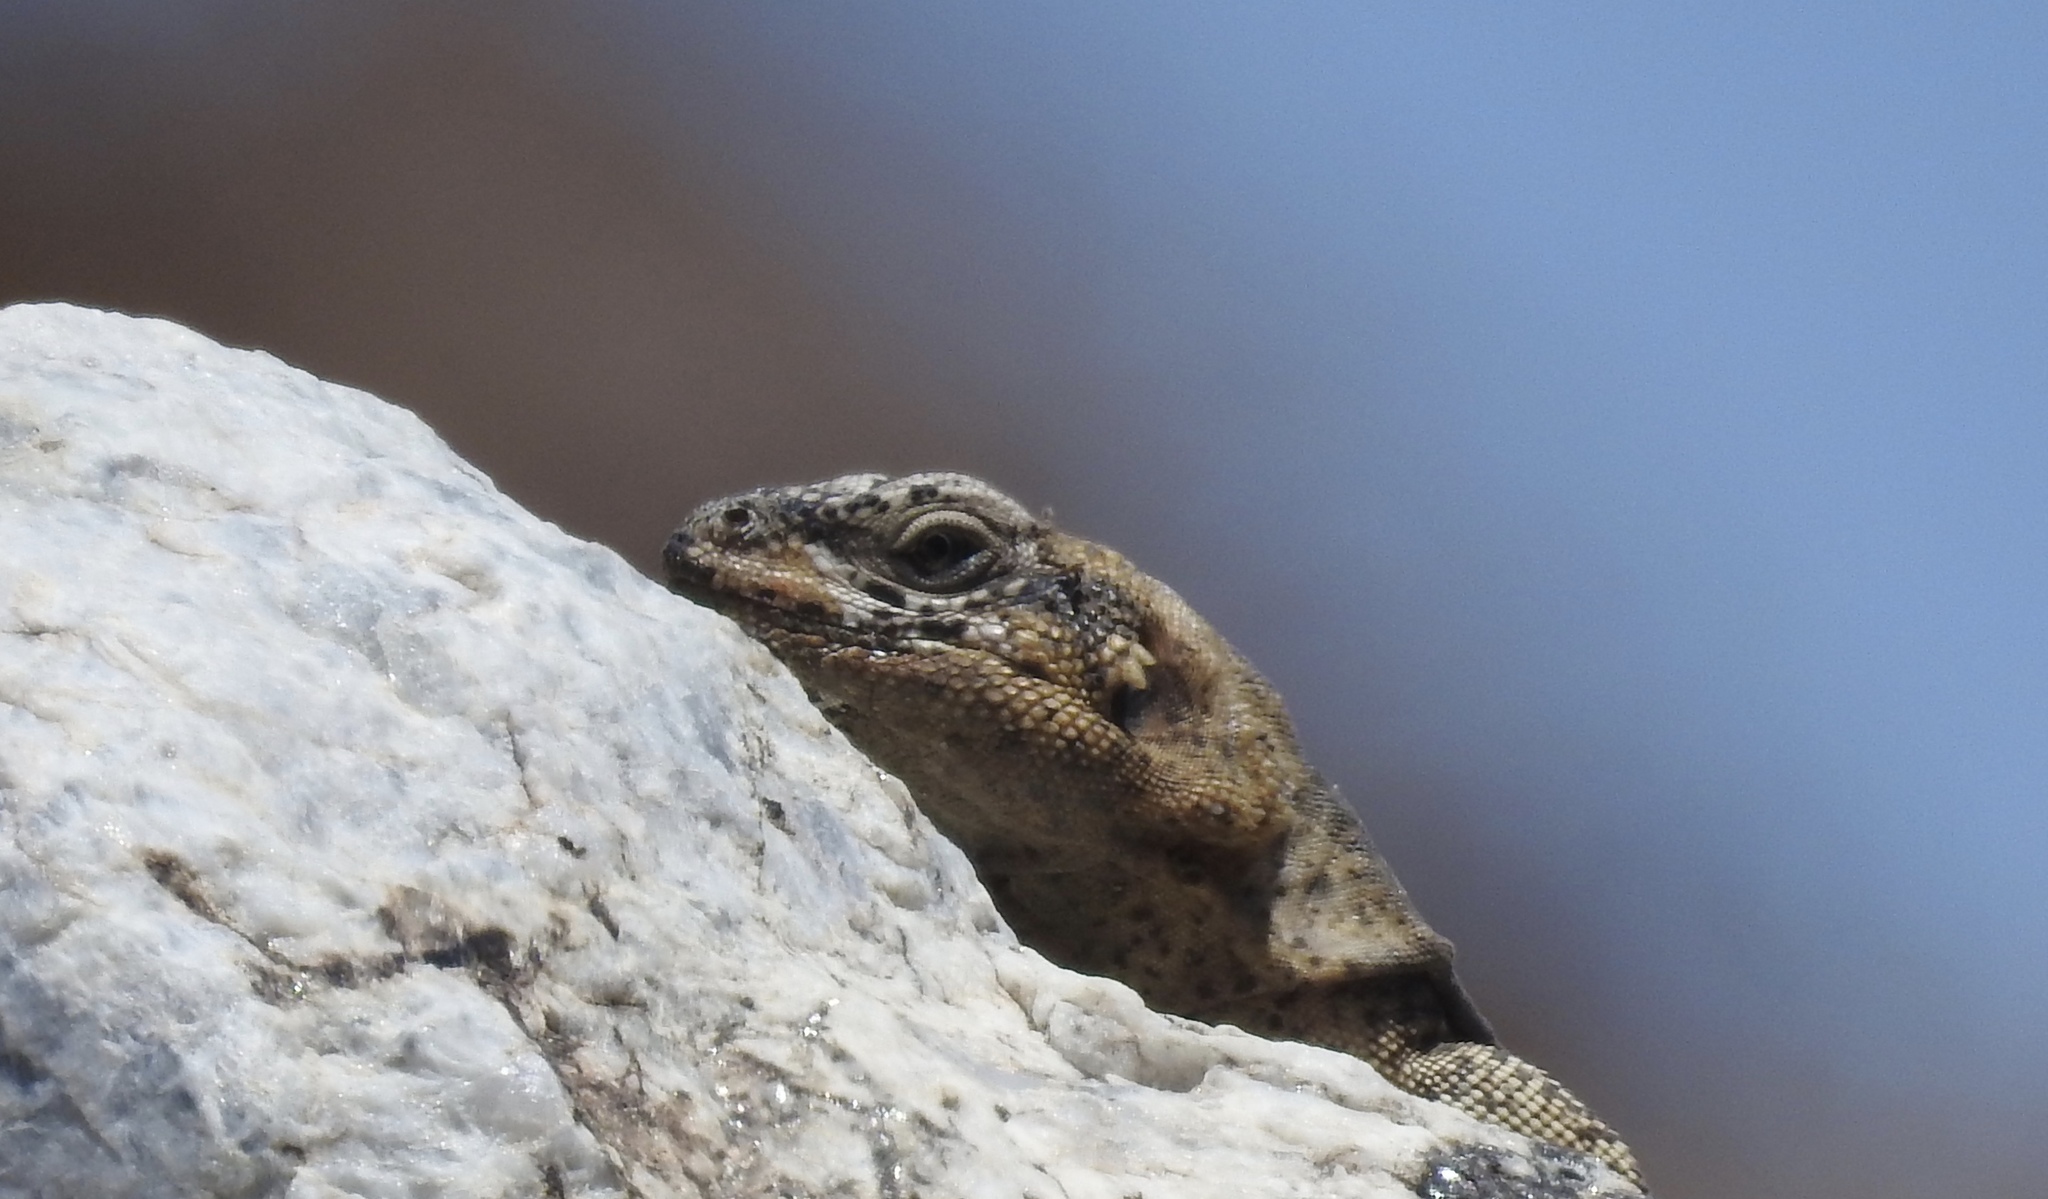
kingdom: Animalia
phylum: Chordata
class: Squamata
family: Iguanidae
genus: Sauromalus
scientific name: Sauromalus ater
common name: Northern chuckwalla
